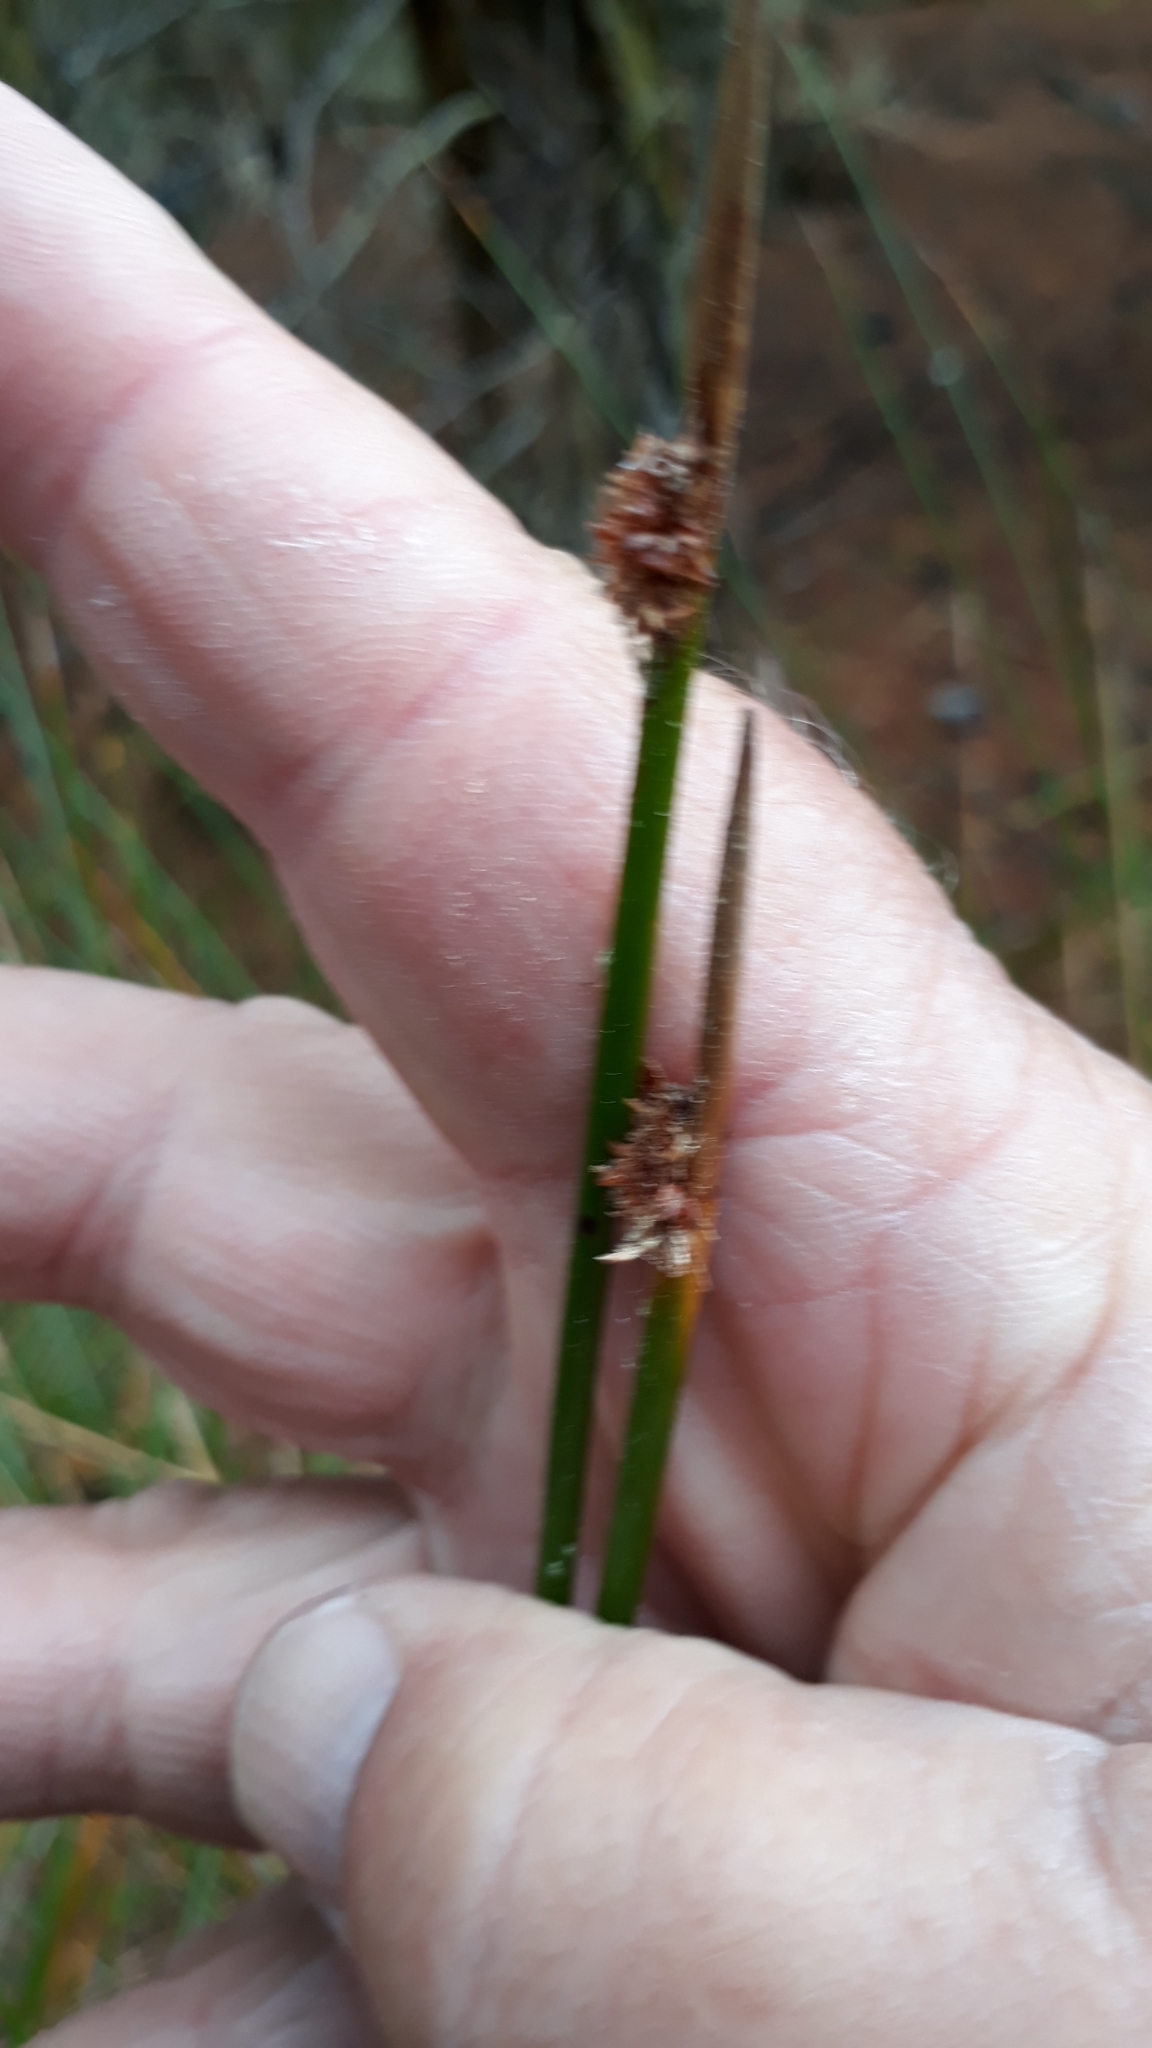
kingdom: Plantae
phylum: Tracheophyta
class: Liliopsida
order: Poales
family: Cyperaceae
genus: Ficinia
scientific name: Ficinia nodosa
